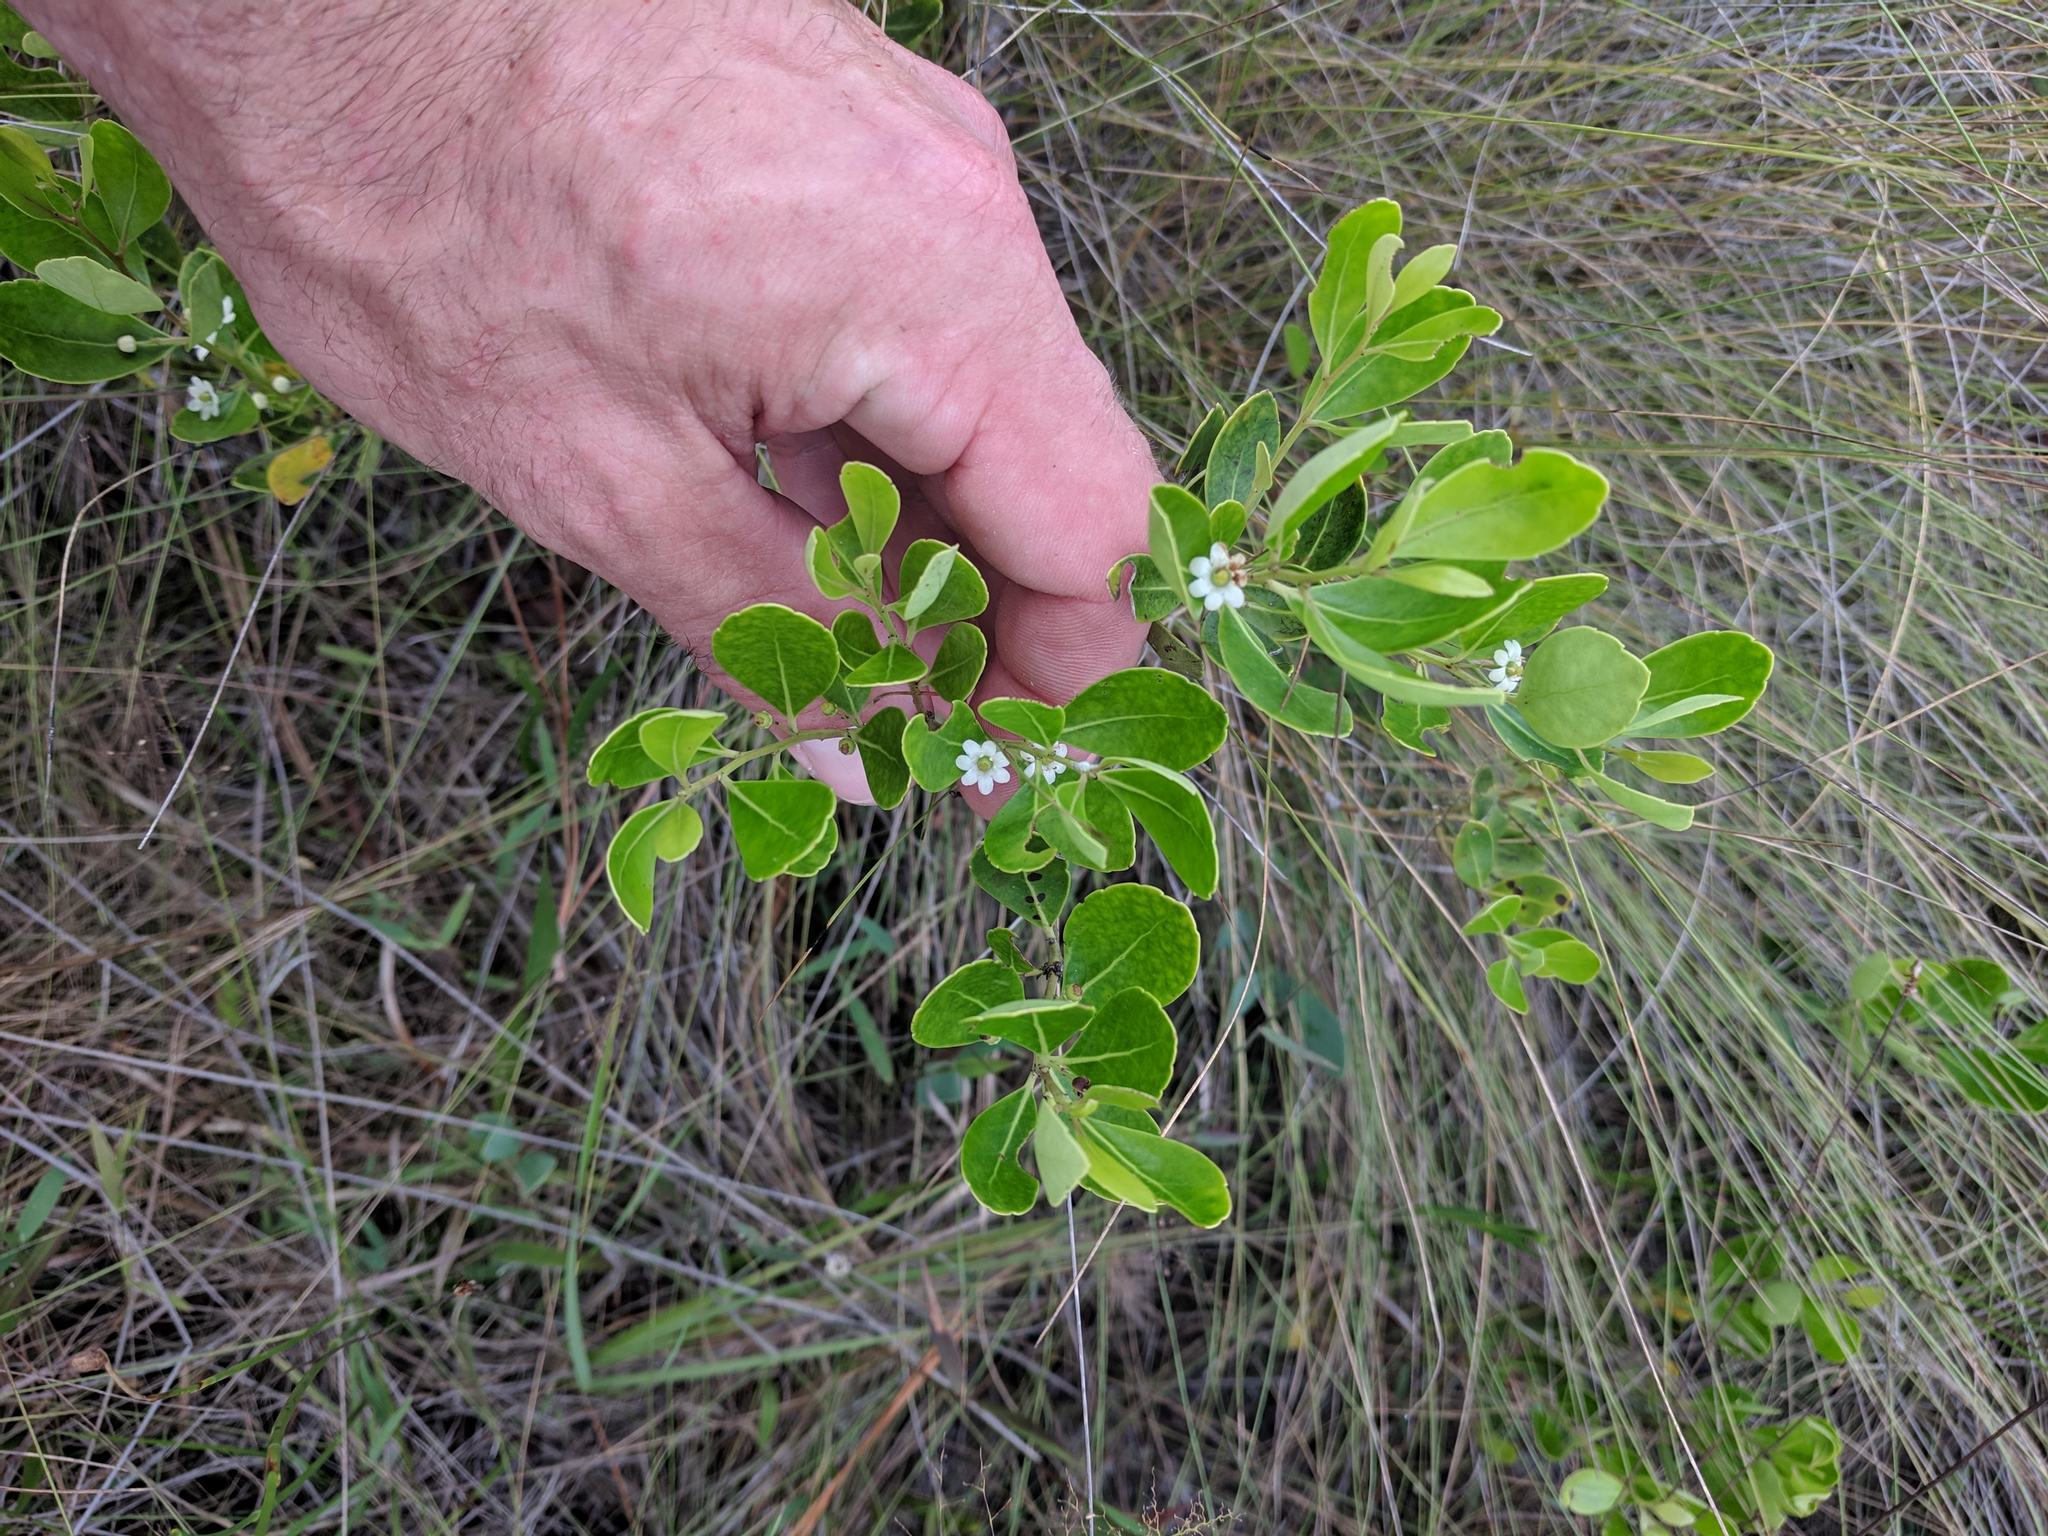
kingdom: Plantae
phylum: Tracheophyta
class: Magnoliopsida
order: Aquifoliales
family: Aquifoliaceae
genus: Ilex
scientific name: Ilex glabra
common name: Bitter gallberry
